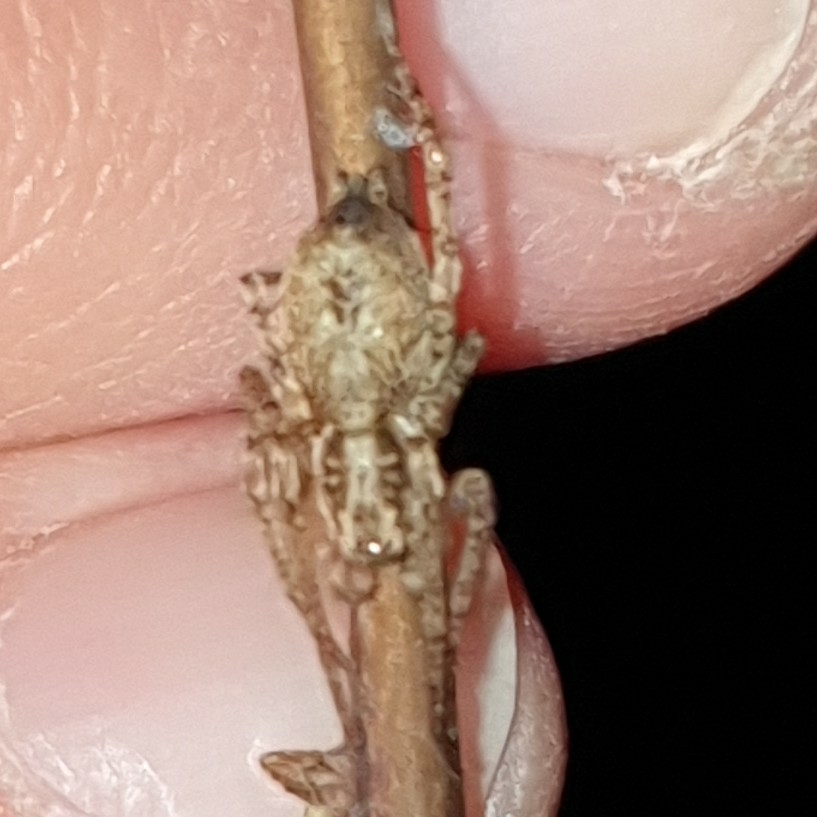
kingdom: Animalia
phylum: Arthropoda
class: Arachnida
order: Araneae
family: Anyphaenidae
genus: Anyphaena
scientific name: Anyphaena accentuata
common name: Buzzing spider
